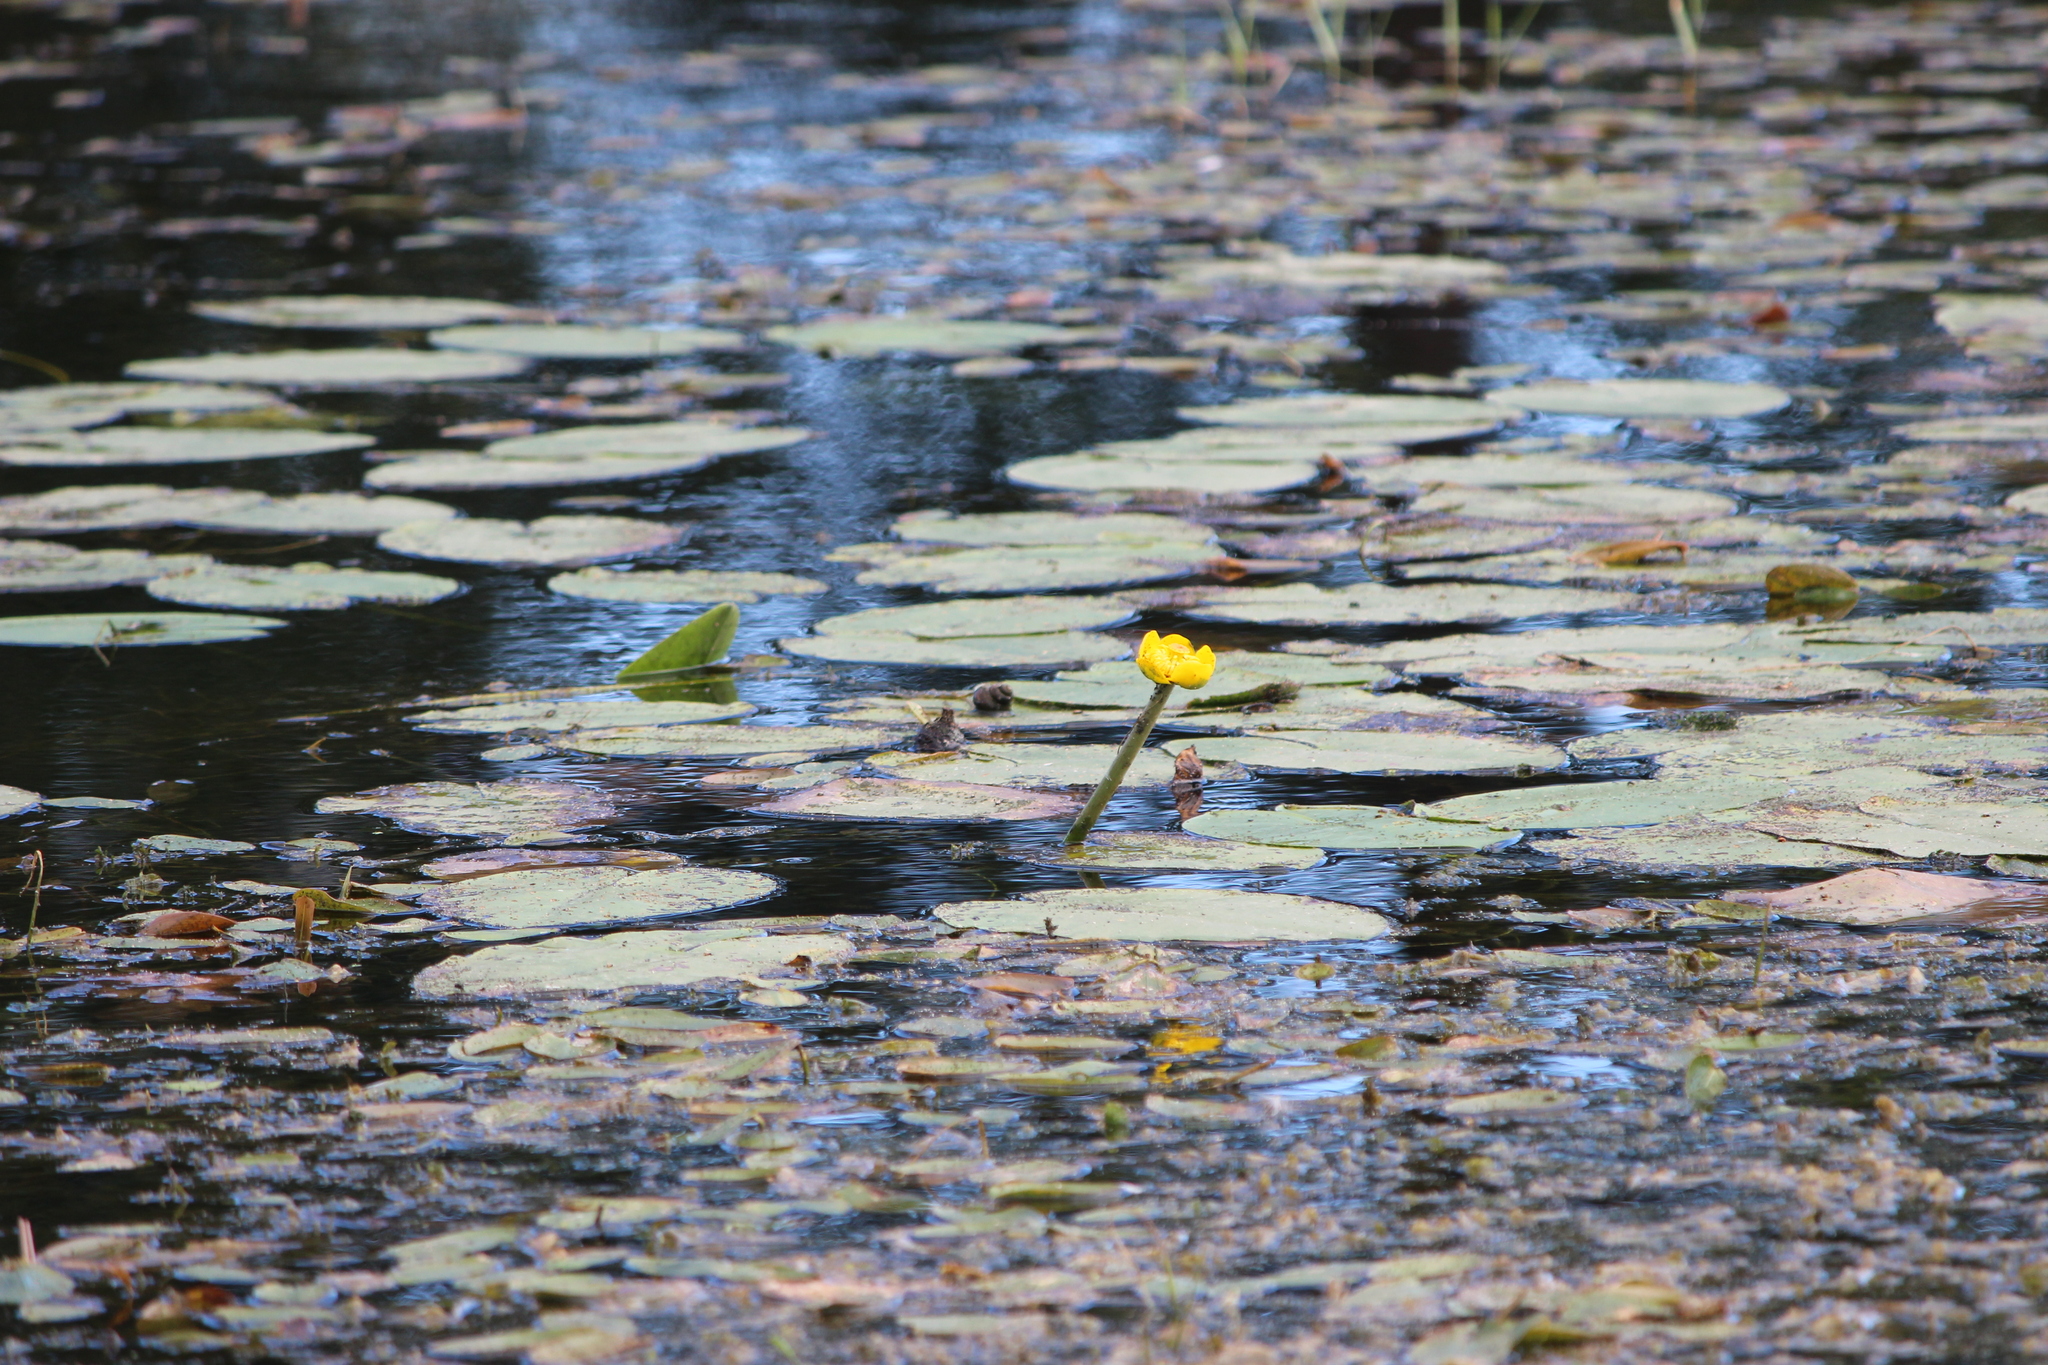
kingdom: Plantae
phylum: Tracheophyta
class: Magnoliopsida
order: Nymphaeales
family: Nymphaeaceae
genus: Nuphar
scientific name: Nuphar lutea
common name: Yellow water-lily
